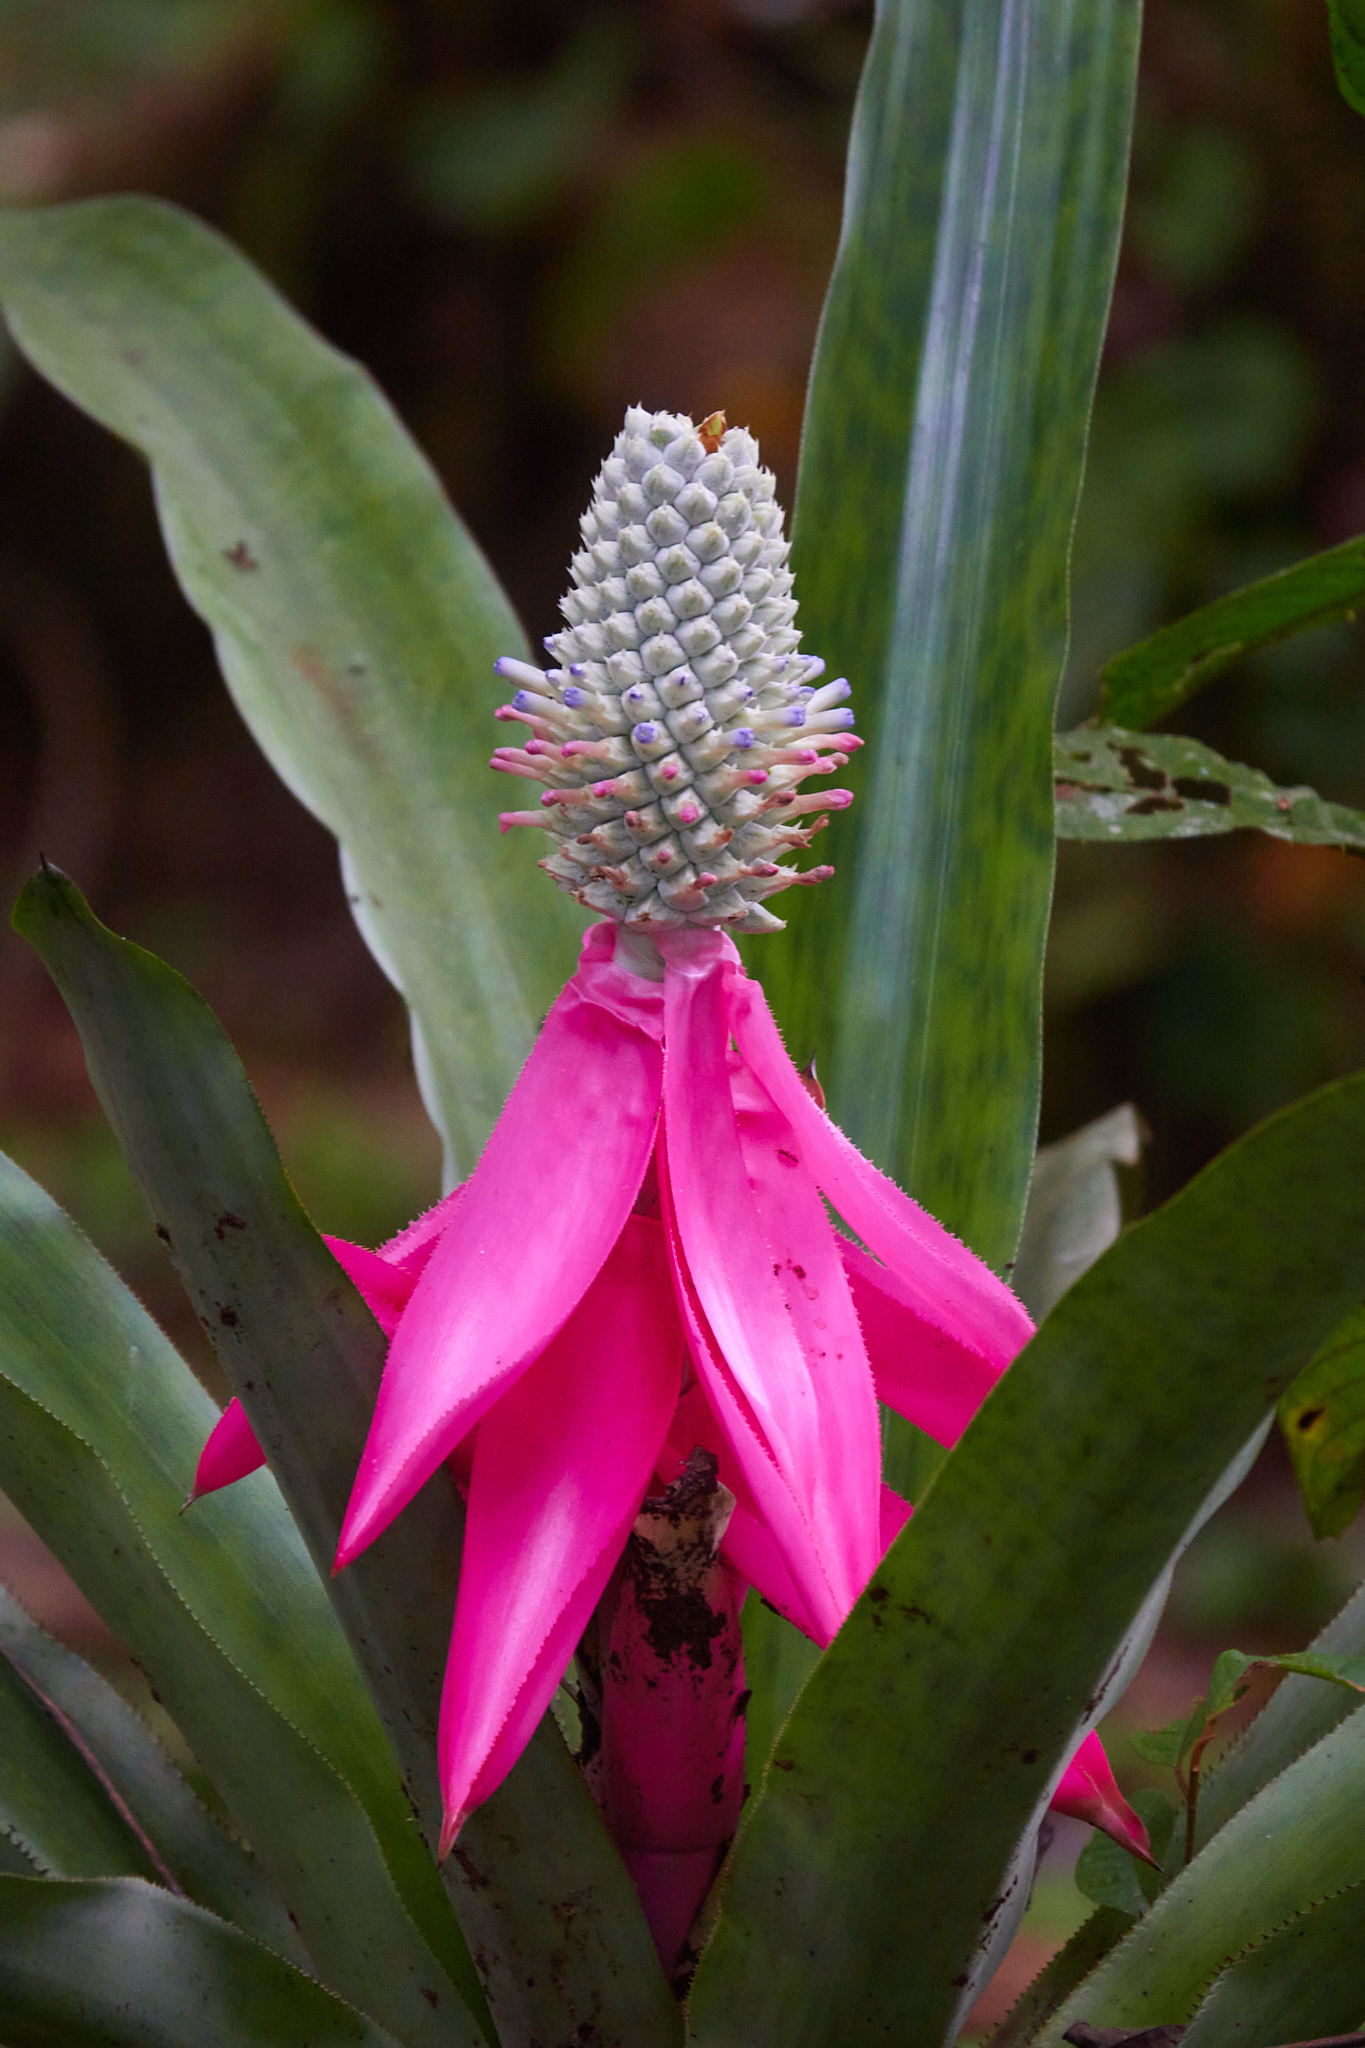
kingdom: Plantae
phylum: Tracheophyta
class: Liliopsida
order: Poales
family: Bromeliaceae
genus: Aechmea
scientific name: Aechmea mariae-reginae
